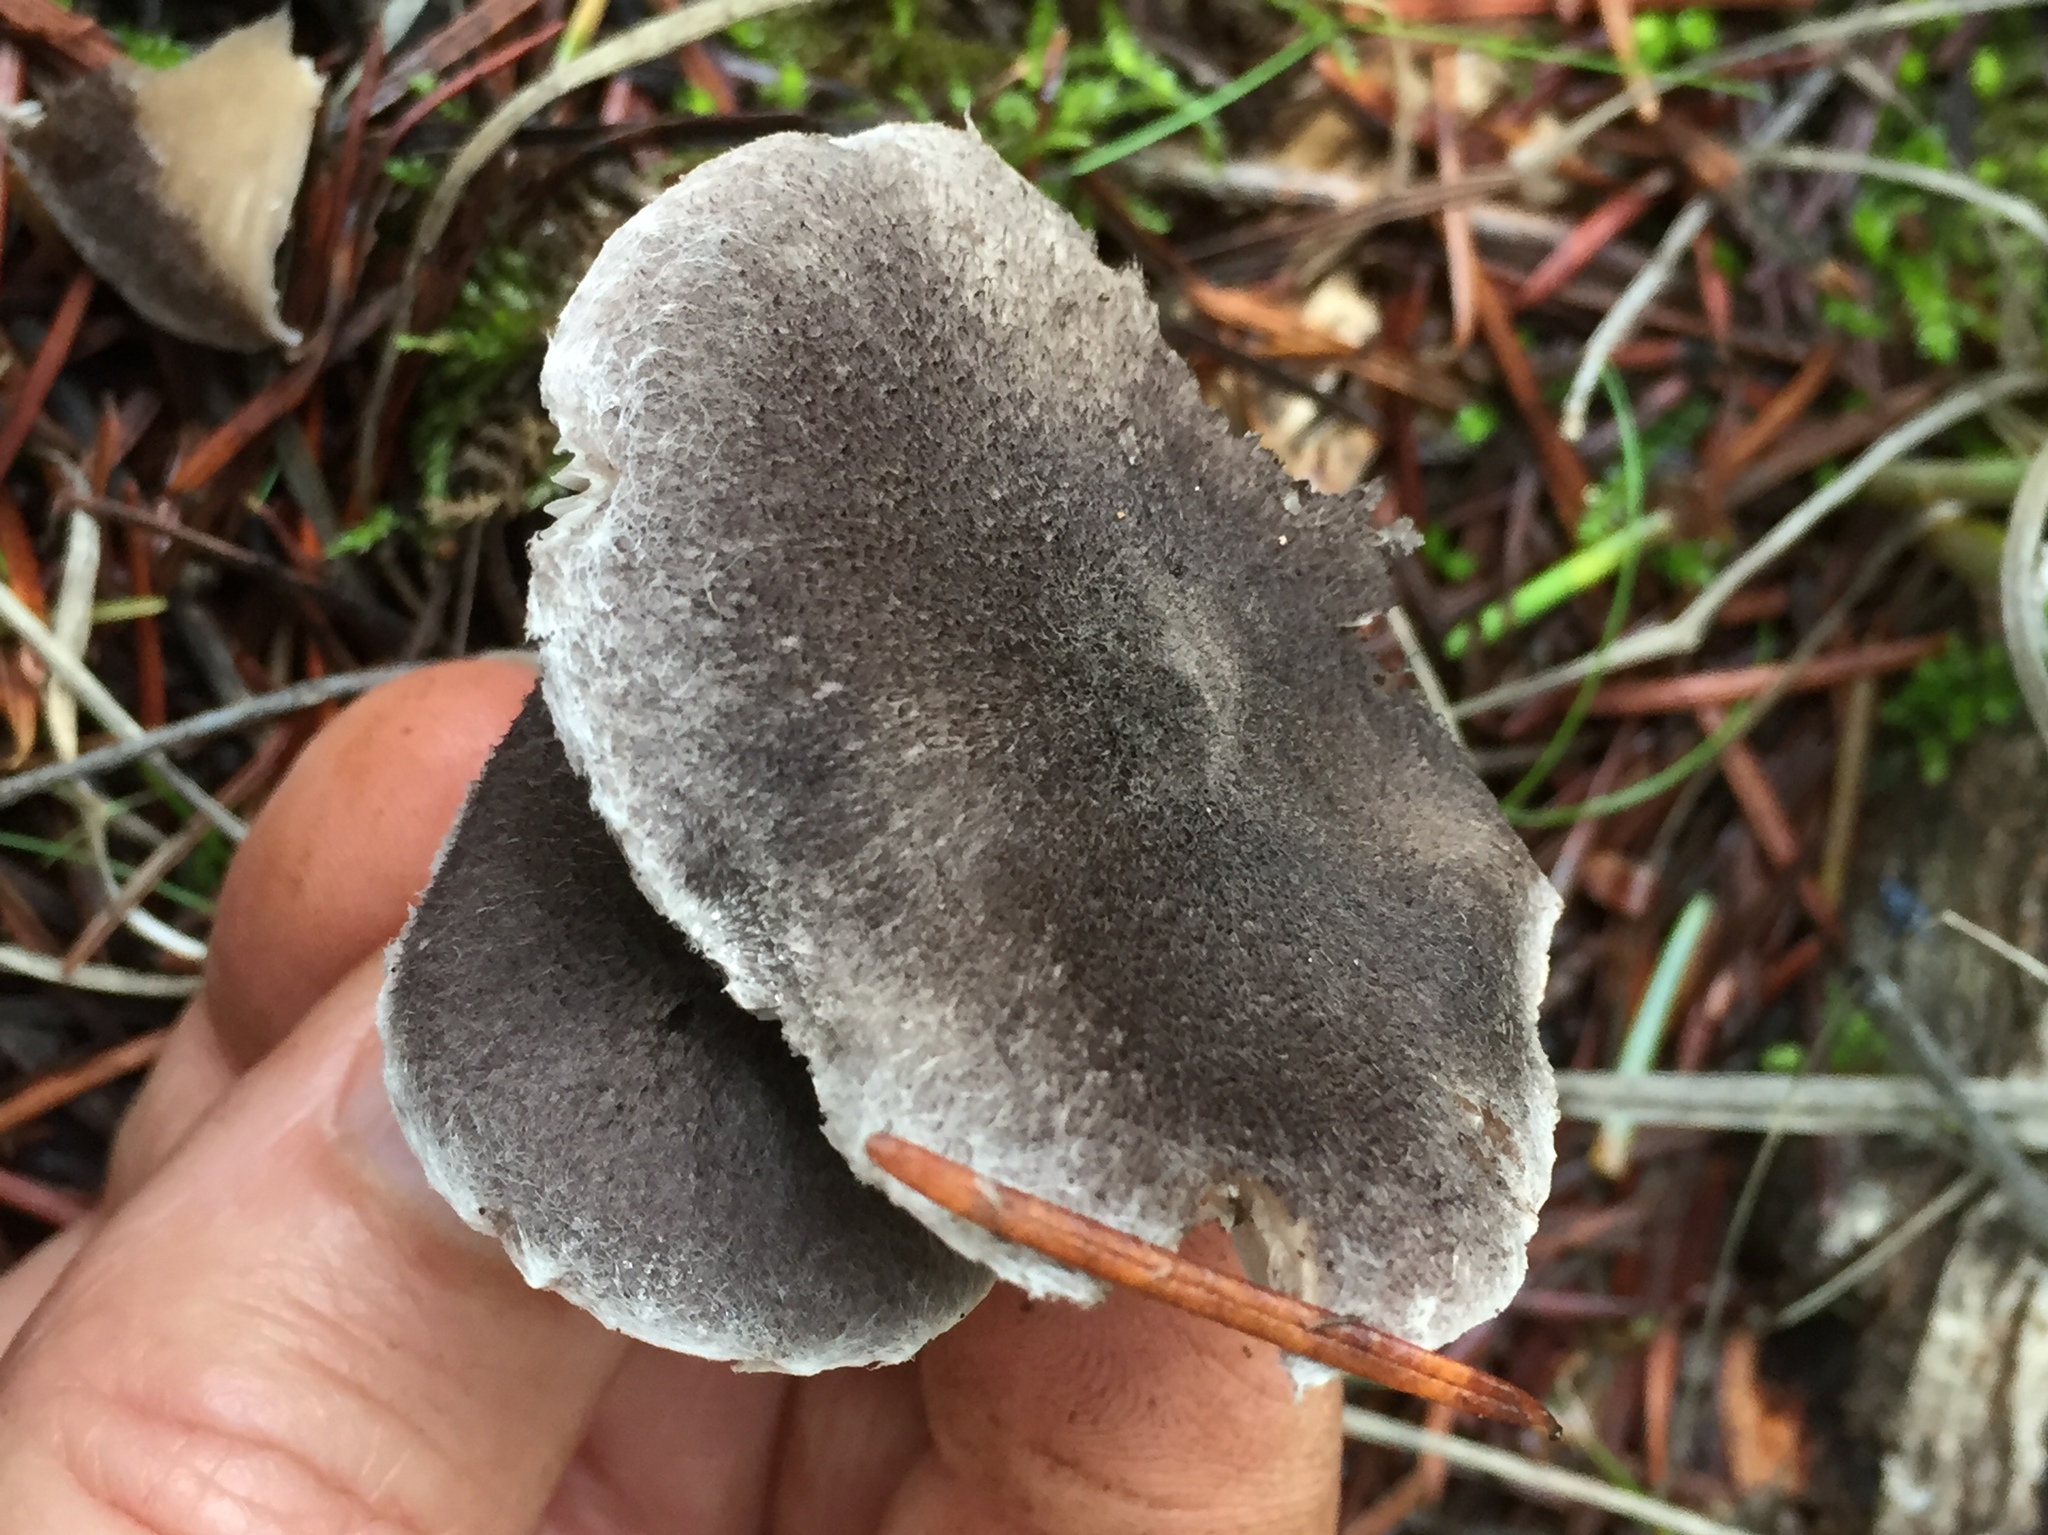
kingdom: Fungi
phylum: Basidiomycota
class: Agaricomycetes
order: Agaricales
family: Tricholomataceae
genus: Tricholoma
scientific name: Tricholoma terreum
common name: Grey knight
